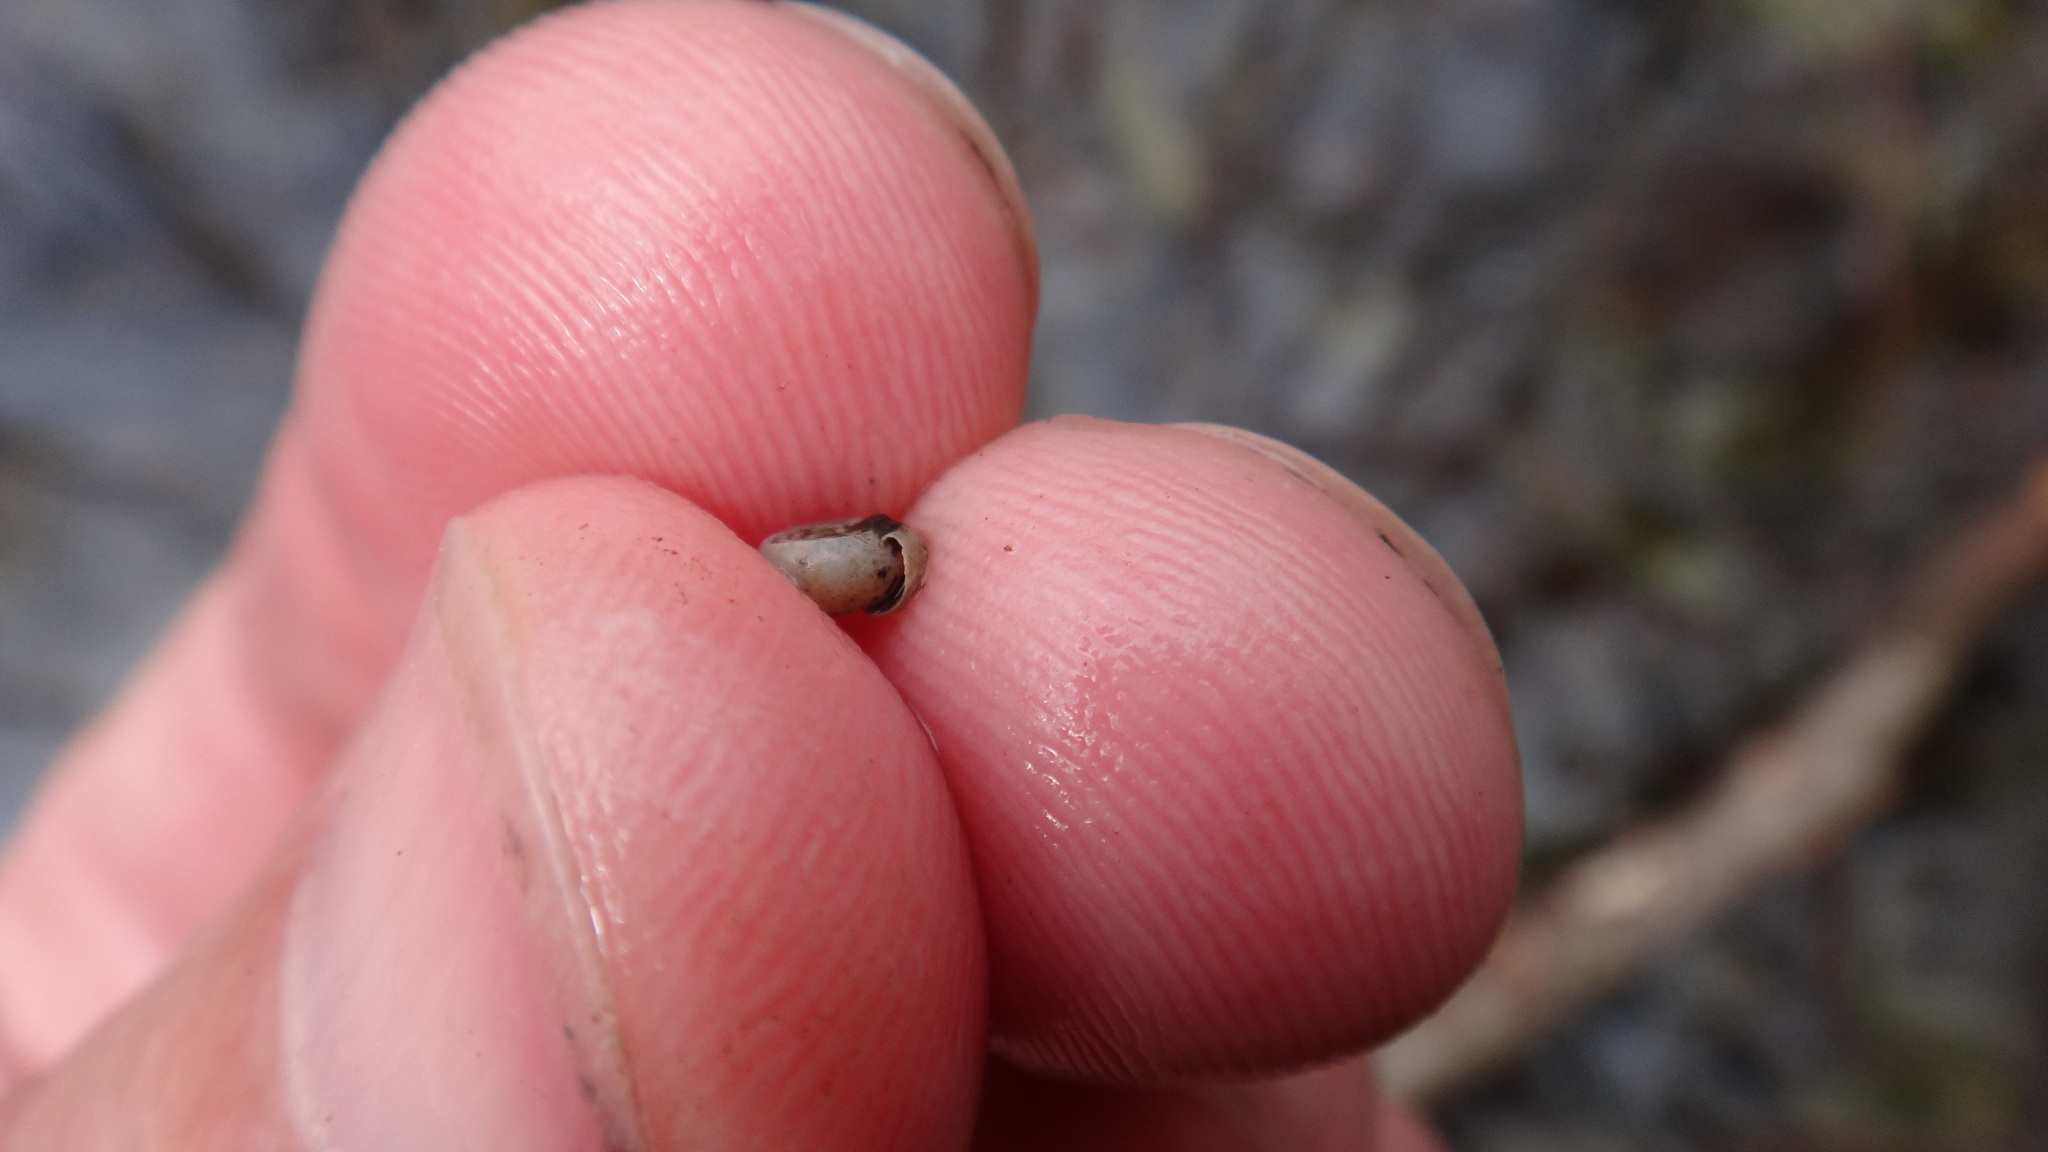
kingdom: Animalia
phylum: Mollusca
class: Gastropoda
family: Planorbidae
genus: Bathyomphalus
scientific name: Bathyomphalus contortus
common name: Twisted ramshorn
